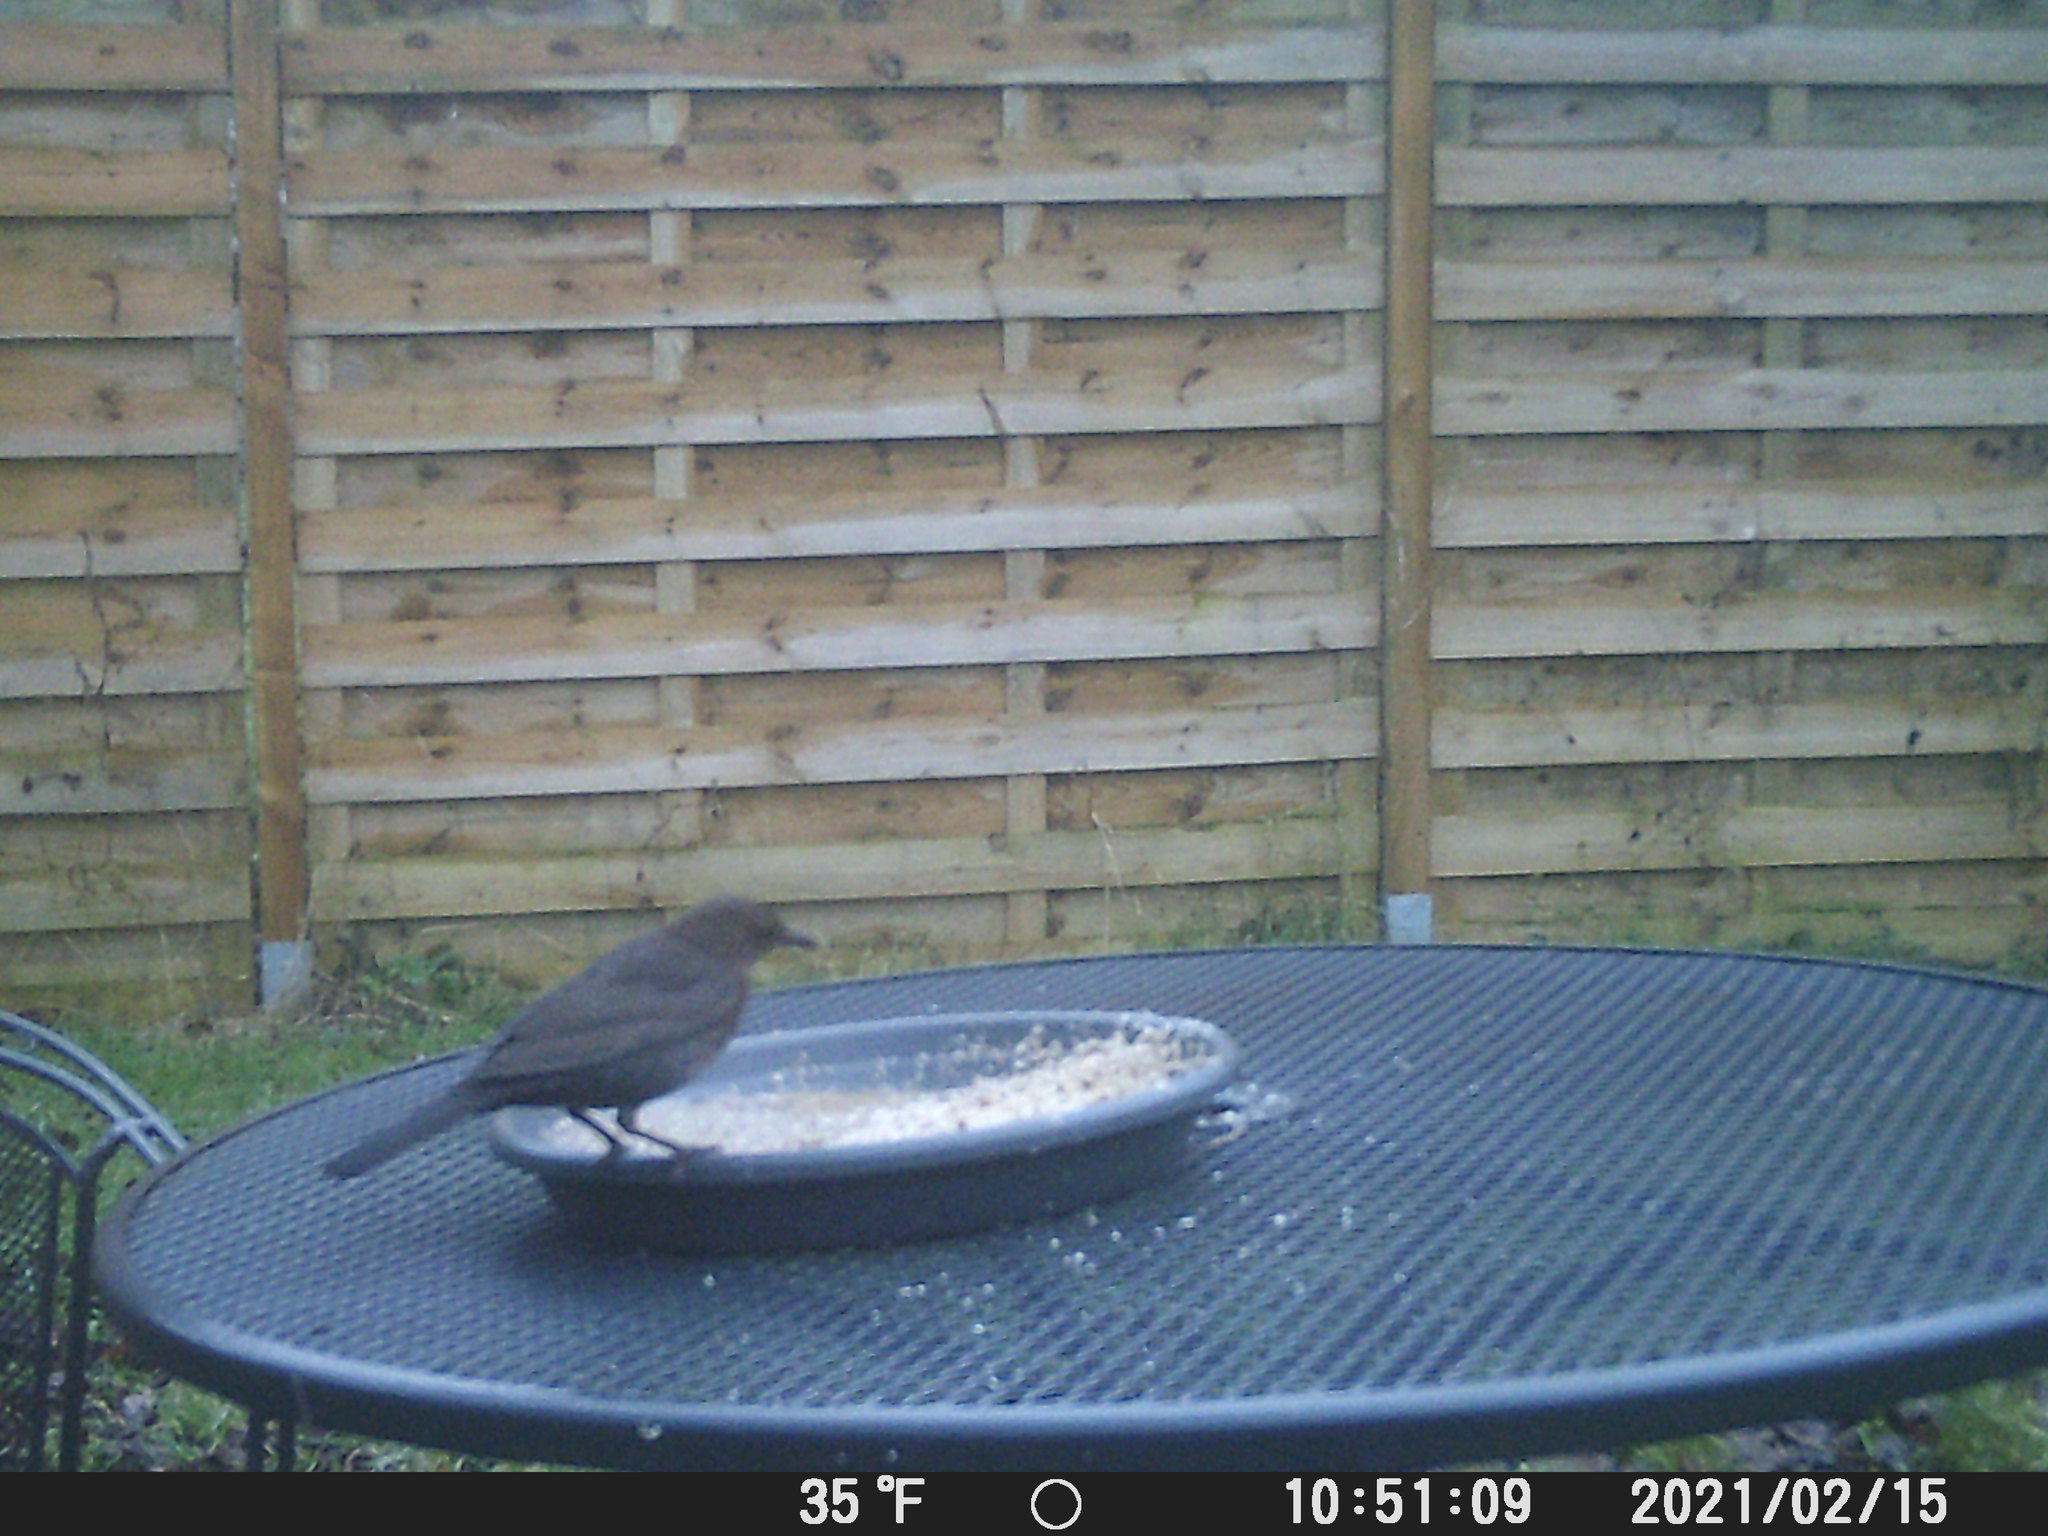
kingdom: Animalia
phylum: Chordata
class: Aves
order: Passeriformes
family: Turdidae
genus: Turdus
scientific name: Turdus merula
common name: Common blackbird
